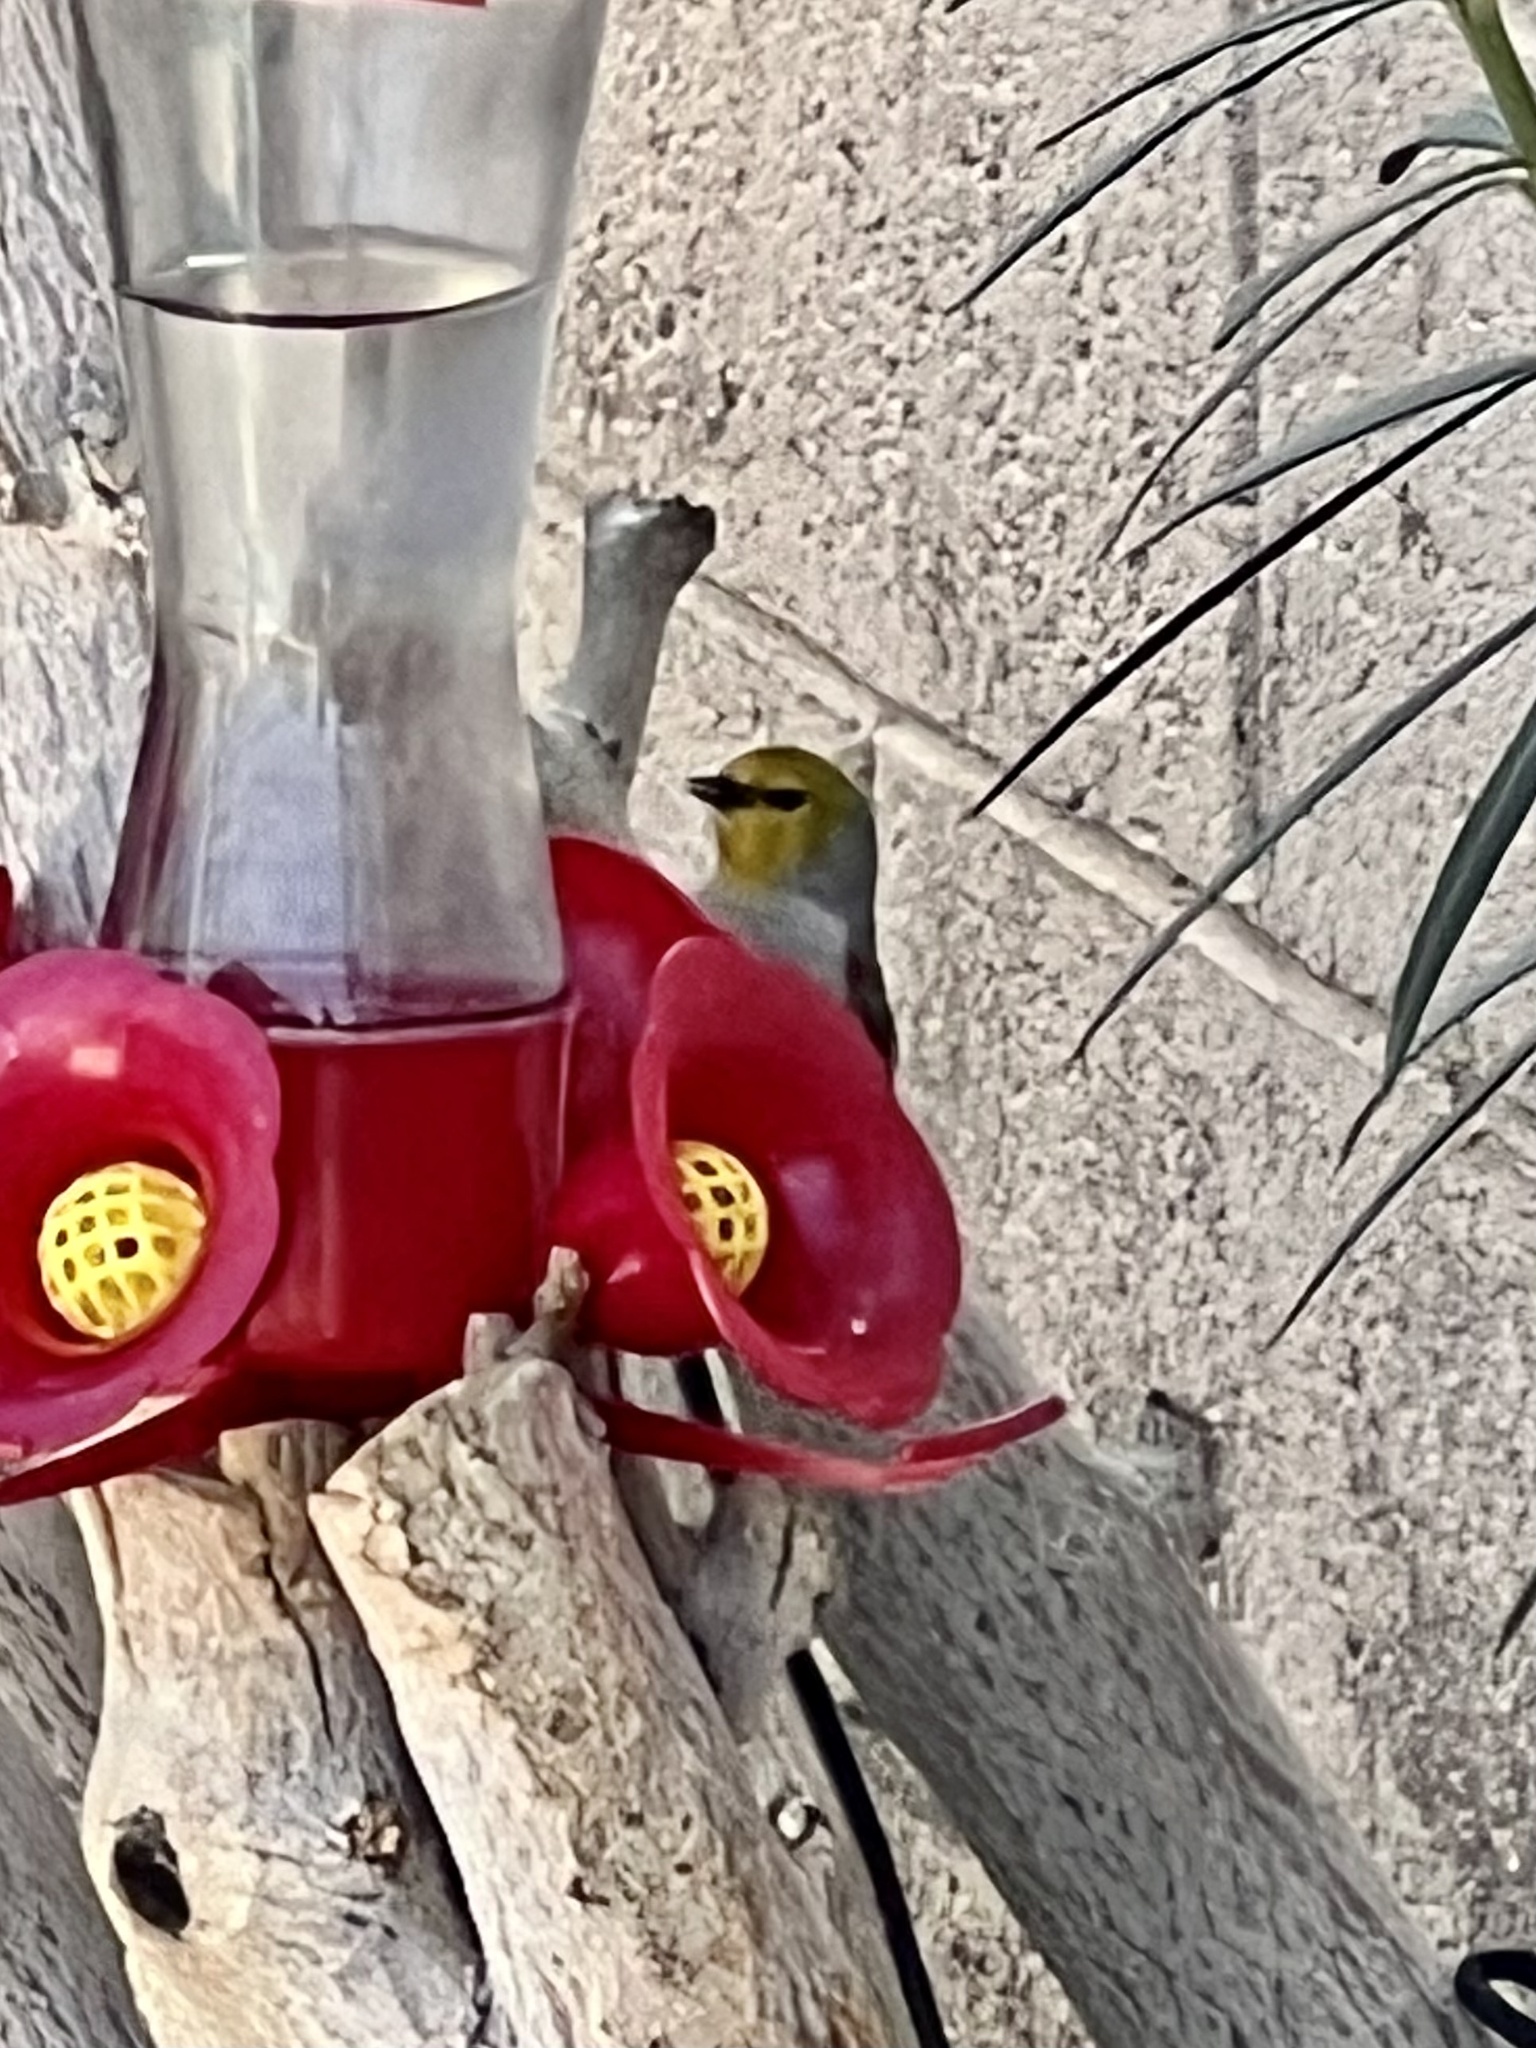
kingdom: Animalia
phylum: Chordata
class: Aves
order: Passeriformes
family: Remizidae
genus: Auriparus
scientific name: Auriparus flaviceps
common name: Verdin
